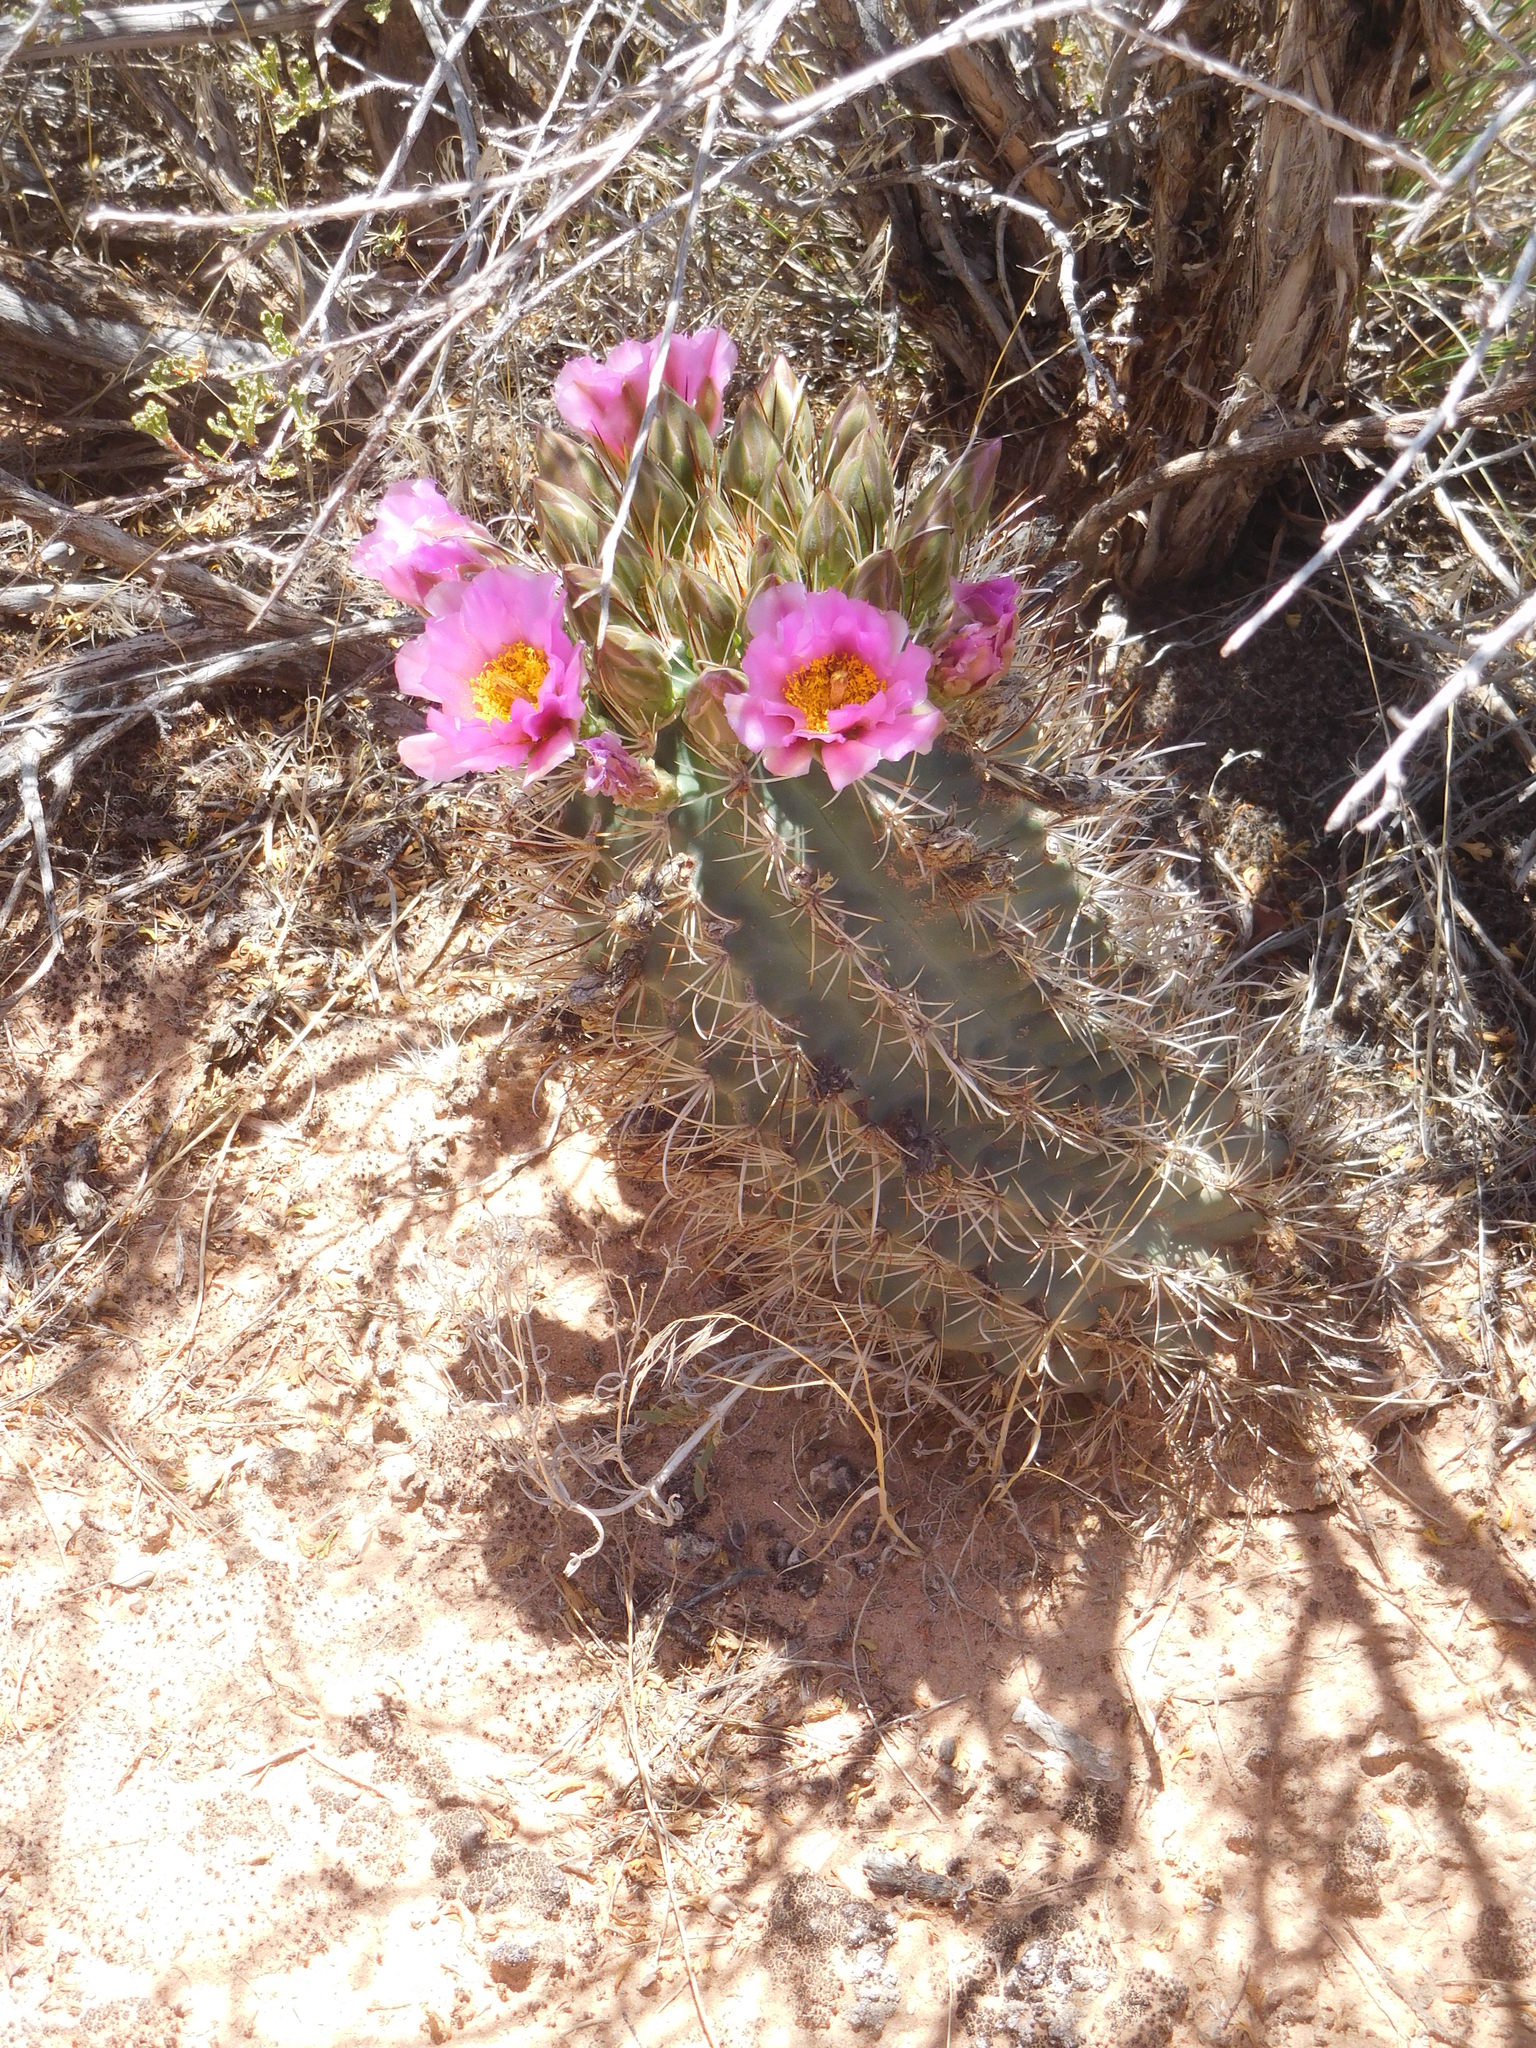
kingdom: Plantae
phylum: Tracheophyta
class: Magnoliopsida
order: Caryophyllales
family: Cactaceae
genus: Sclerocactus
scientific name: Sclerocactus parviflorus
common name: Small-flower fishhook cactus
